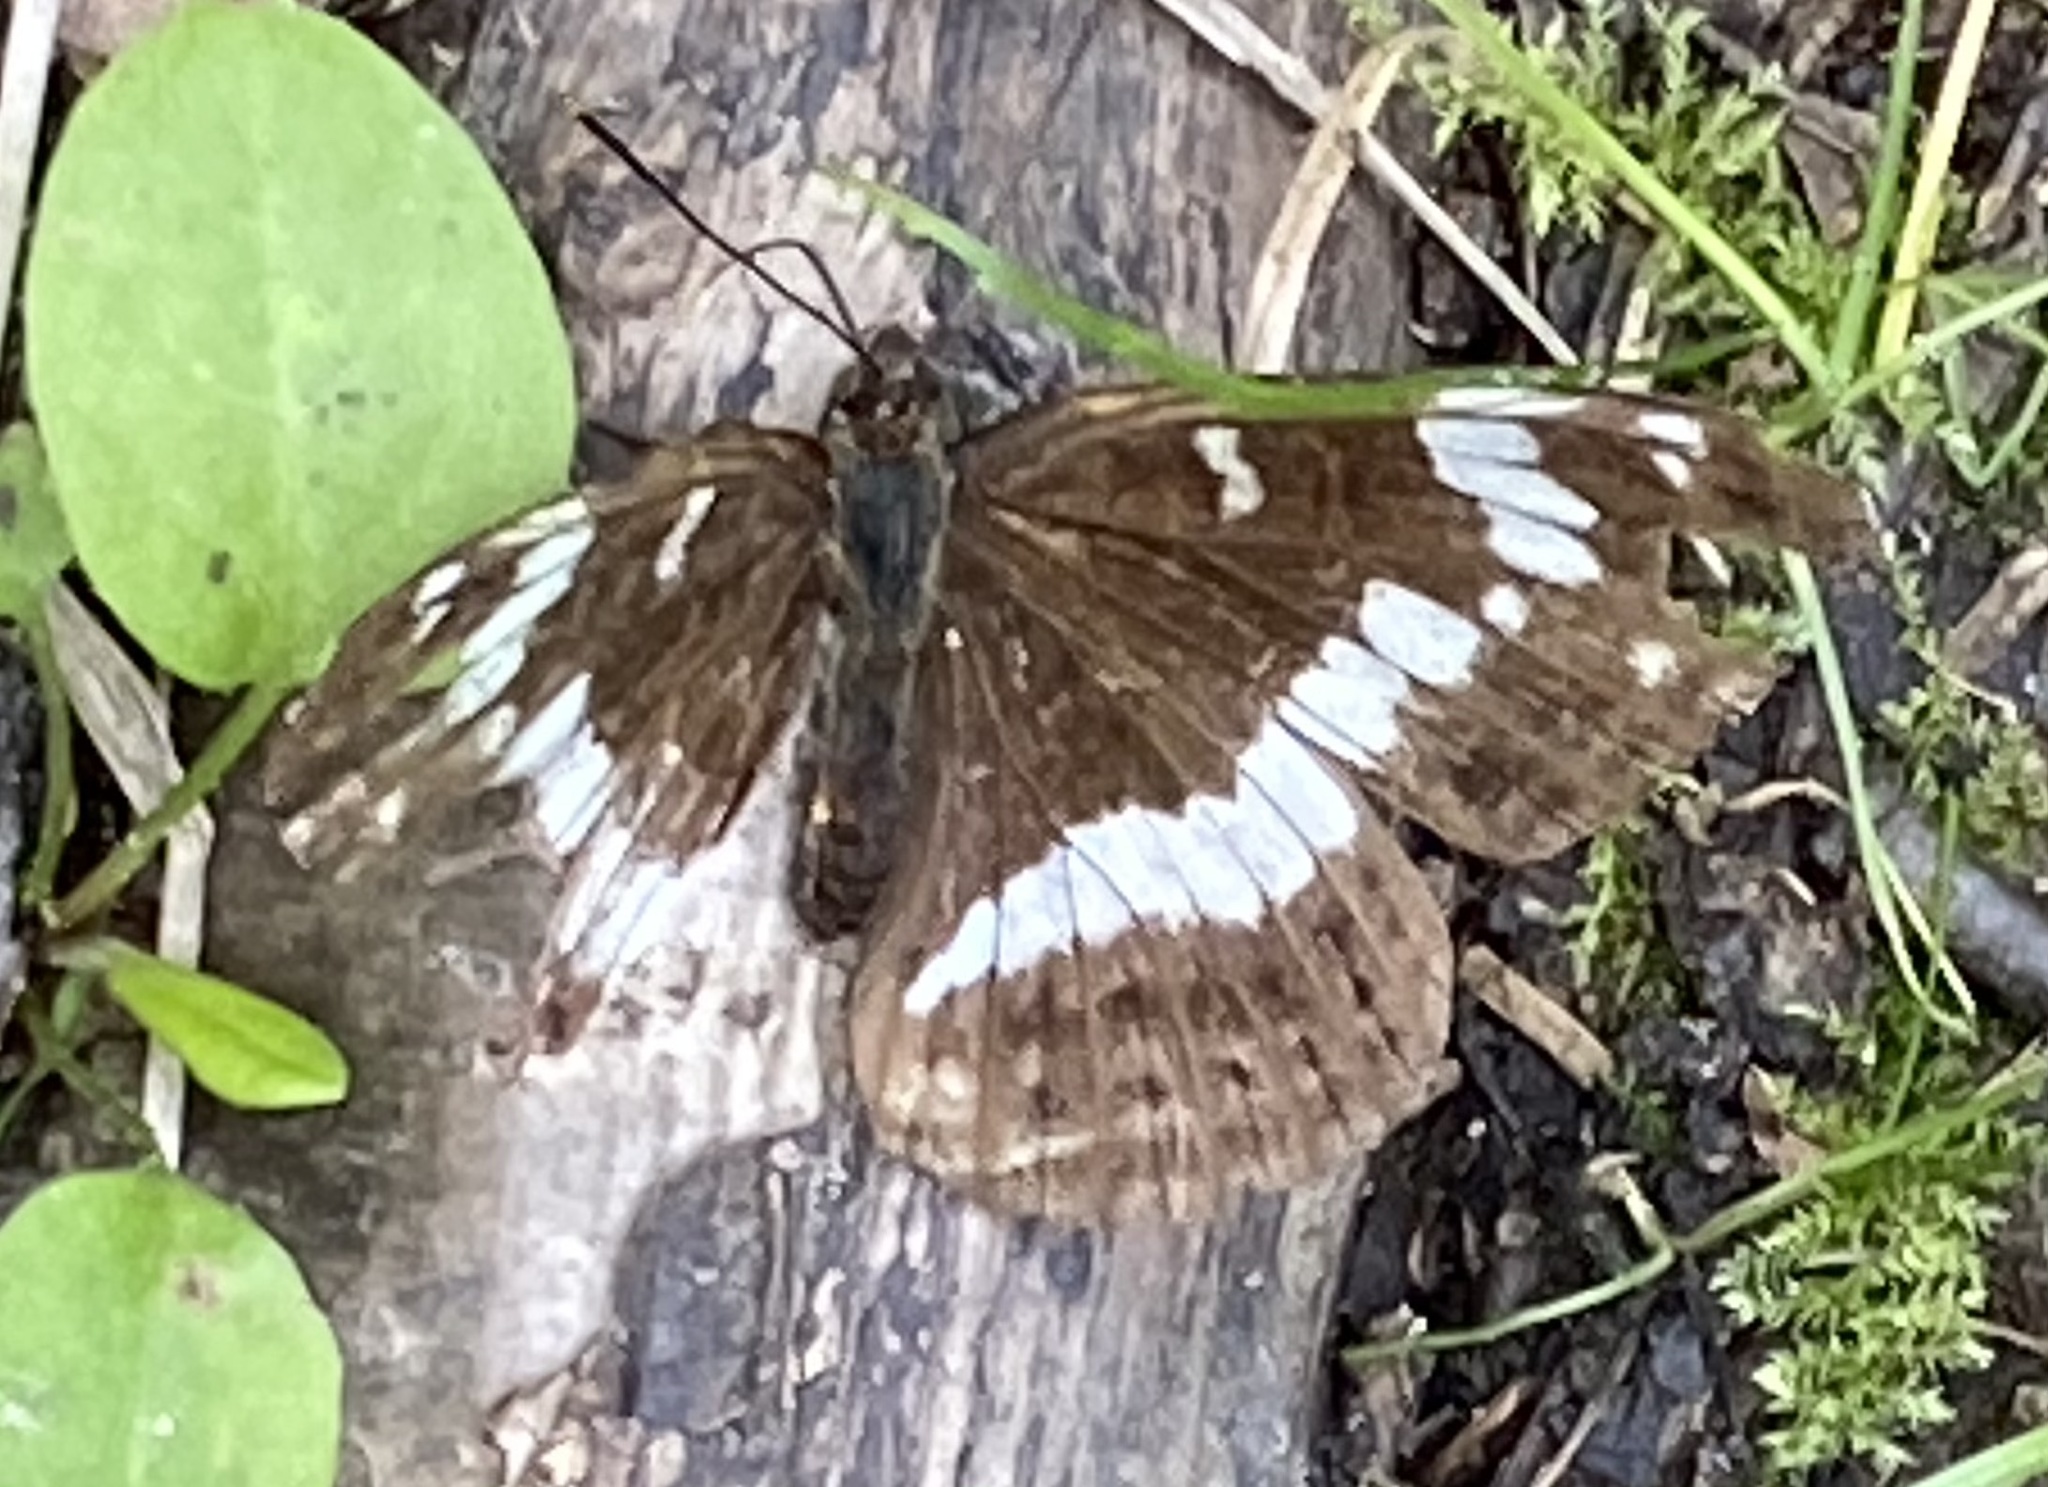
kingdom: Animalia
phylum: Arthropoda
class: Insecta
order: Lepidoptera
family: Nymphalidae
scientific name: Nymphalidae
